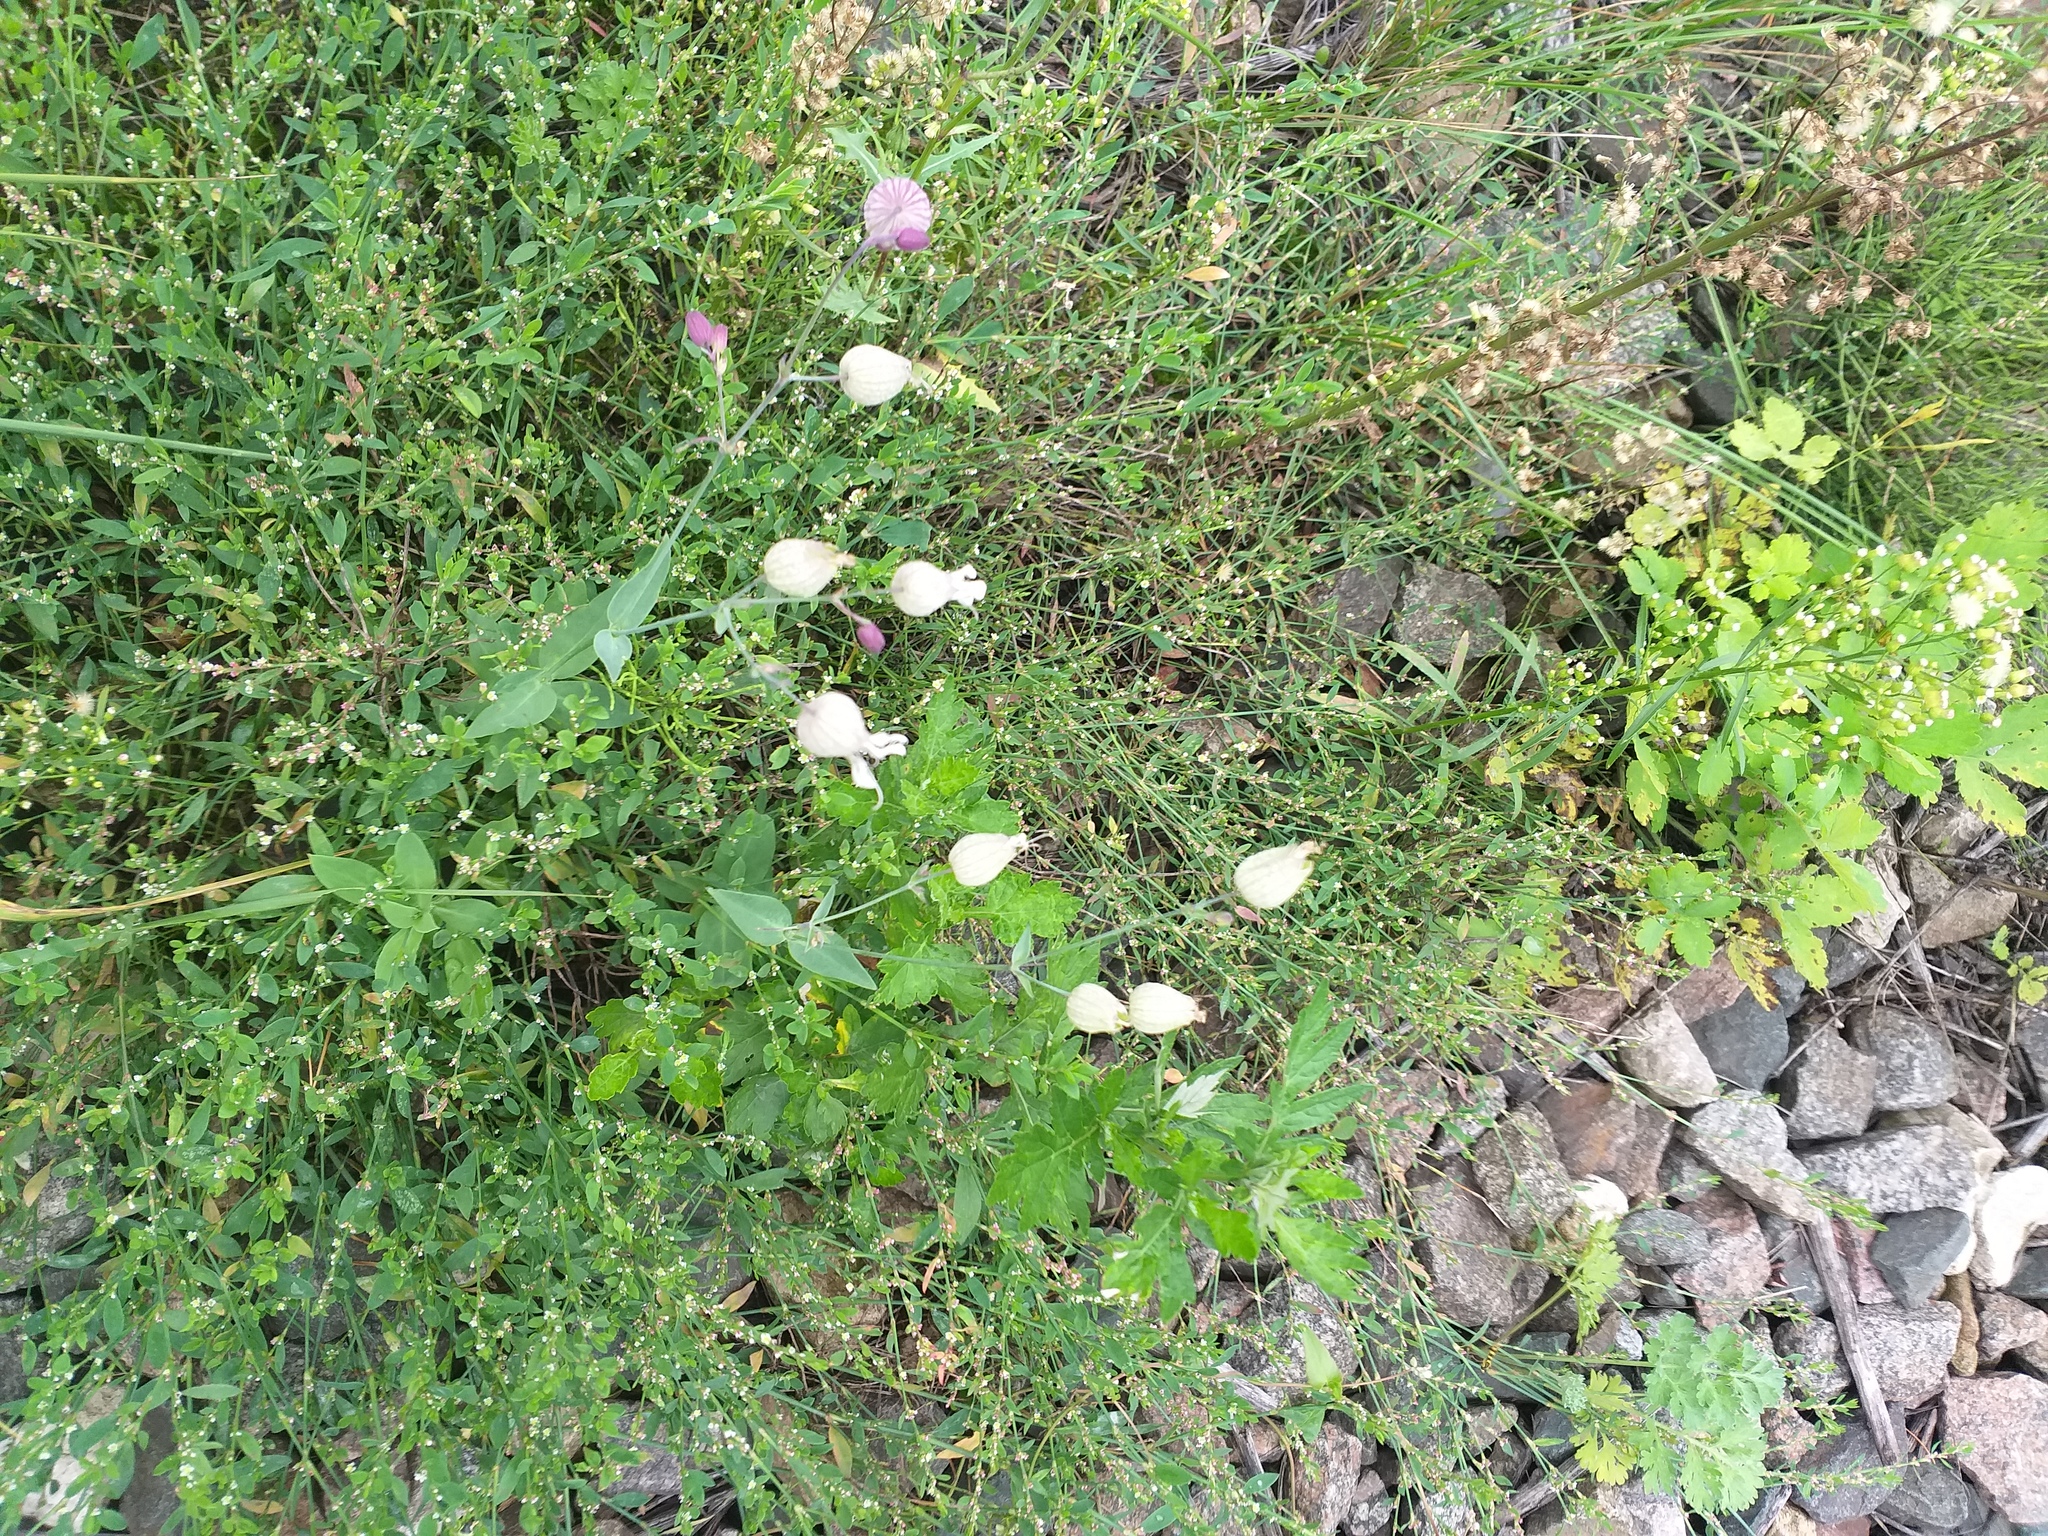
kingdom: Plantae
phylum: Tracheophyta
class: Magnoliopsida
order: Caryophyllales
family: Caryophyllaceae
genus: Silene
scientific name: Silene vulgaris
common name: Bladder campion
